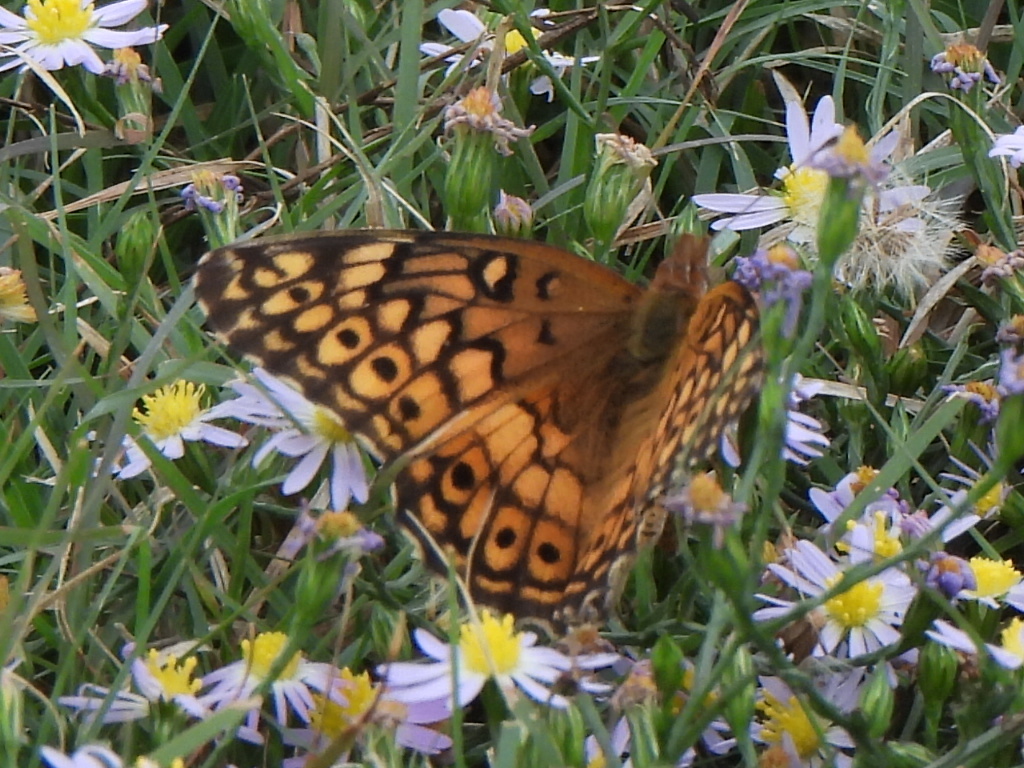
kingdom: Animalia
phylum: Arthropoda
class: Insecta
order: Lepidoptera
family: Nymphalidae
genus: Euptoieta
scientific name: Euptoieta claudia
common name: Variegated fritillary
